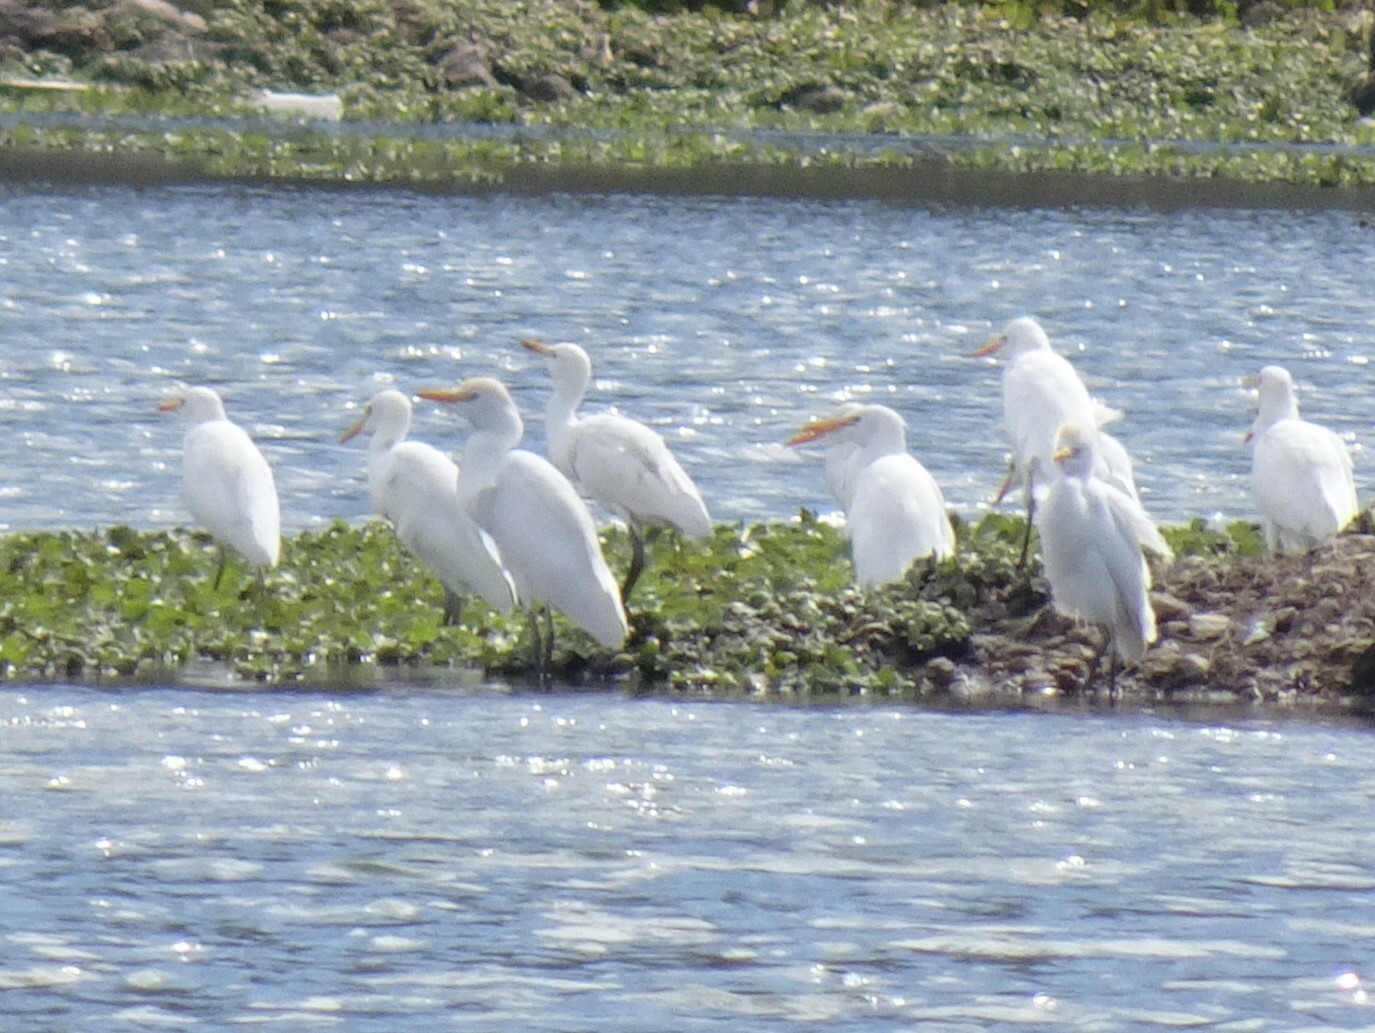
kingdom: Animalia
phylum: Chordata
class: Aves
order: Pelecaniformes
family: Ardeidae
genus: Bubulcus
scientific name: Bubulcus ibis
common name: Cattle egret
